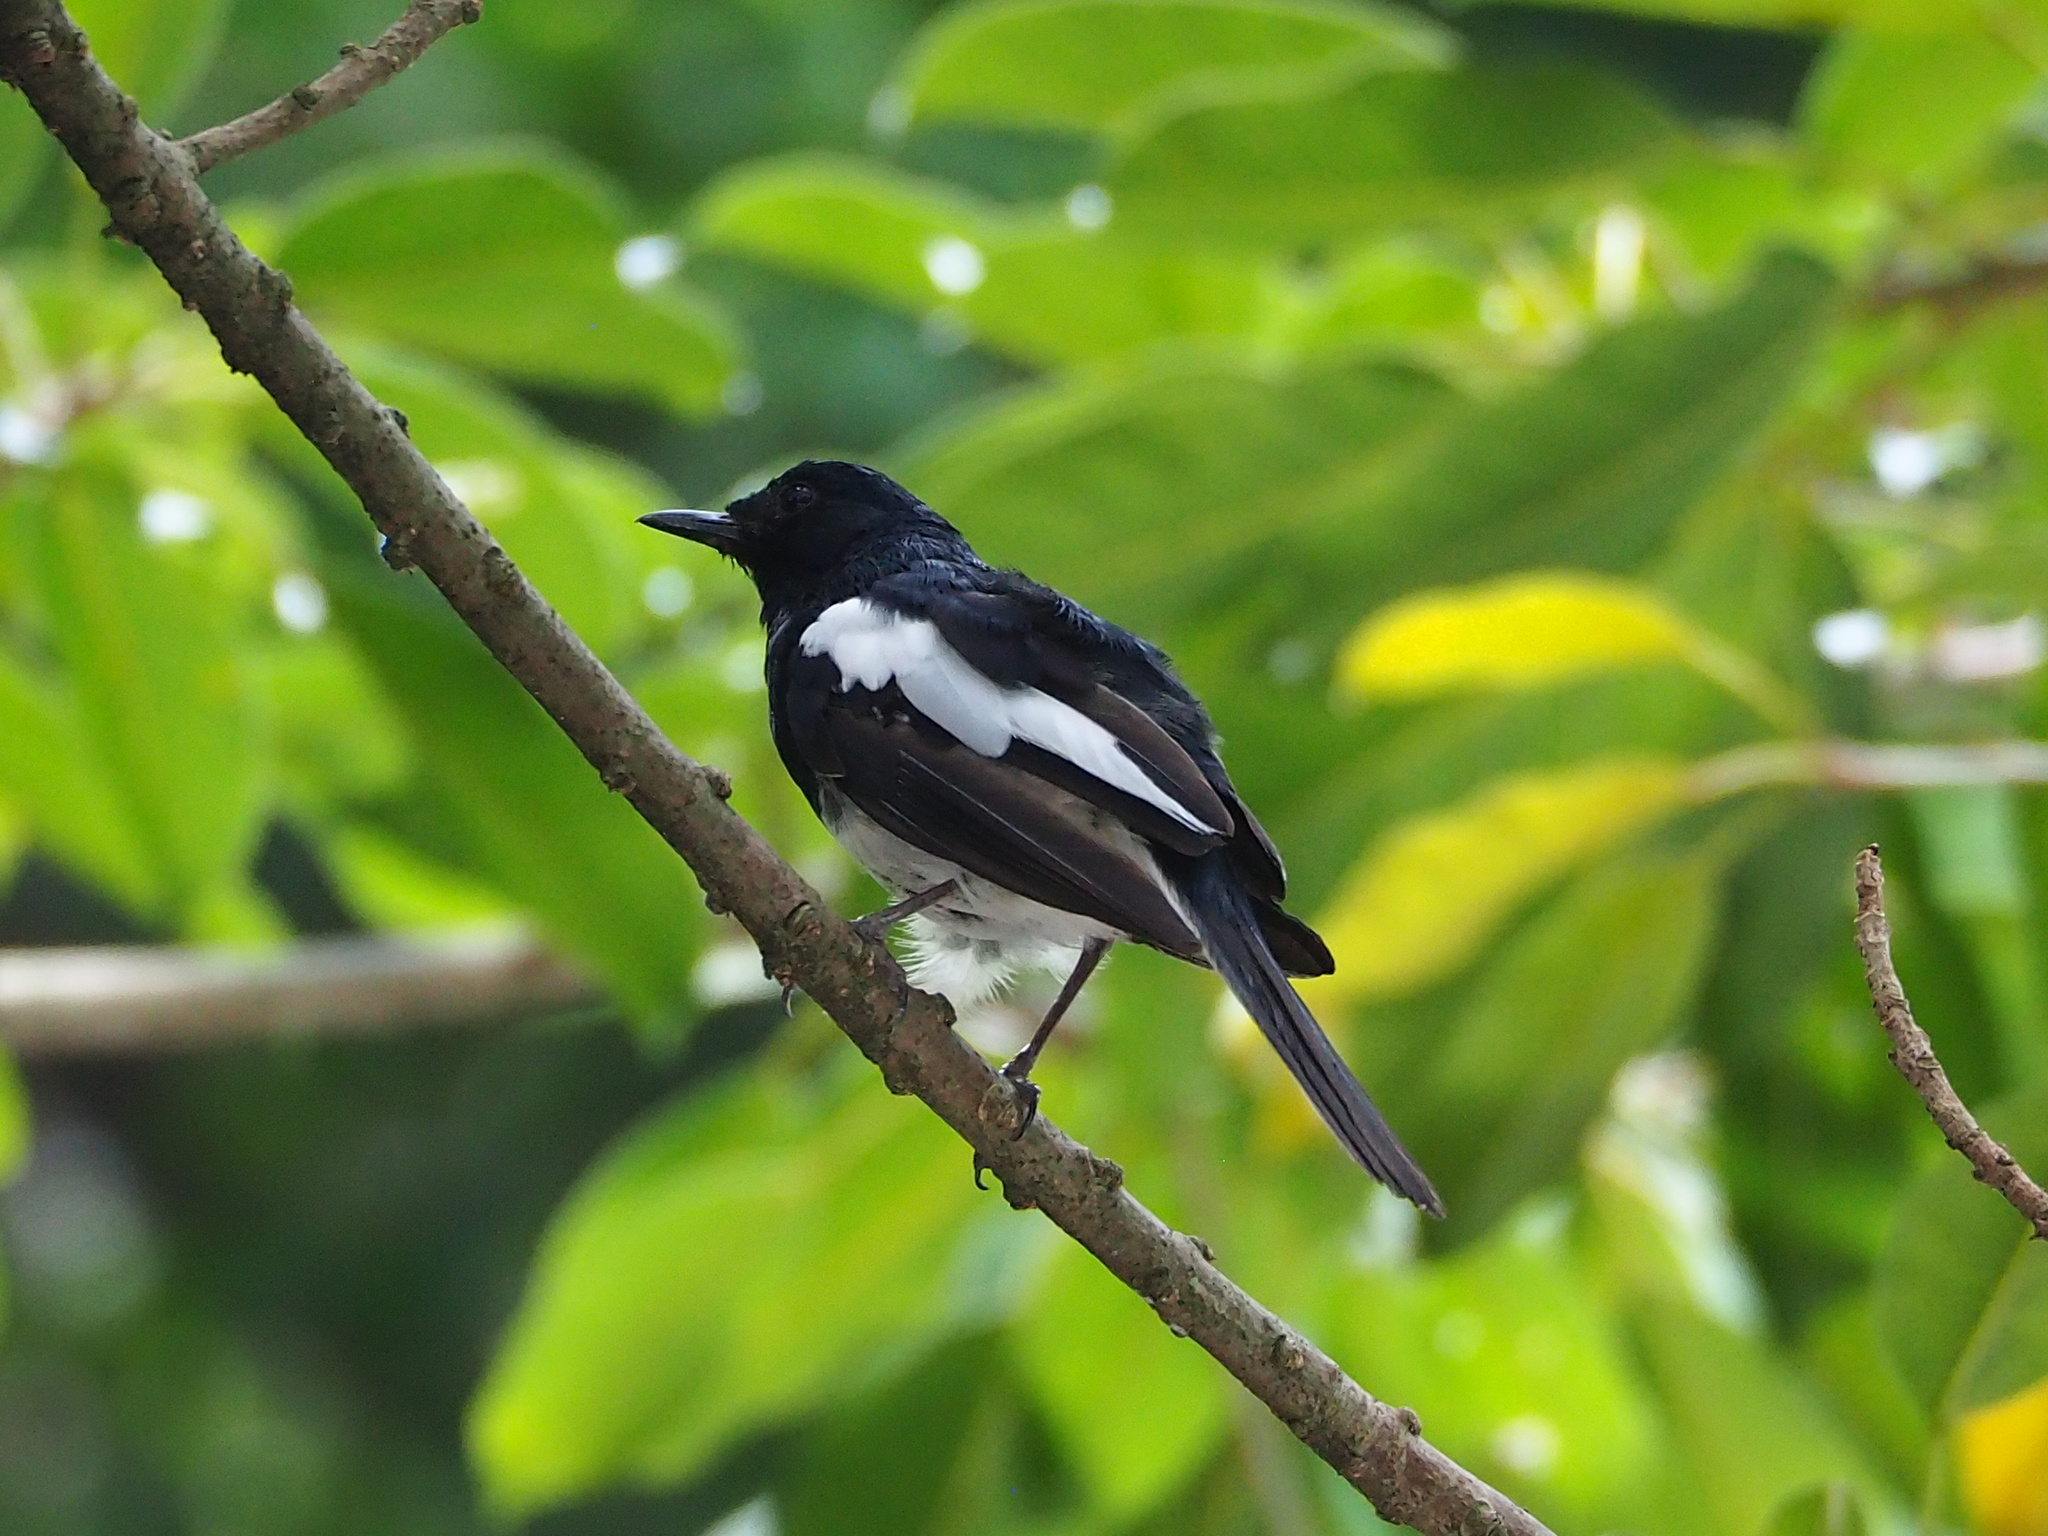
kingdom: Animalia
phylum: Chordata
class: Aves
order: Passeriformes
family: Muscicapidae
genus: Copsychus
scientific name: Copsychus saularis
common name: Oriental magpie-robin
